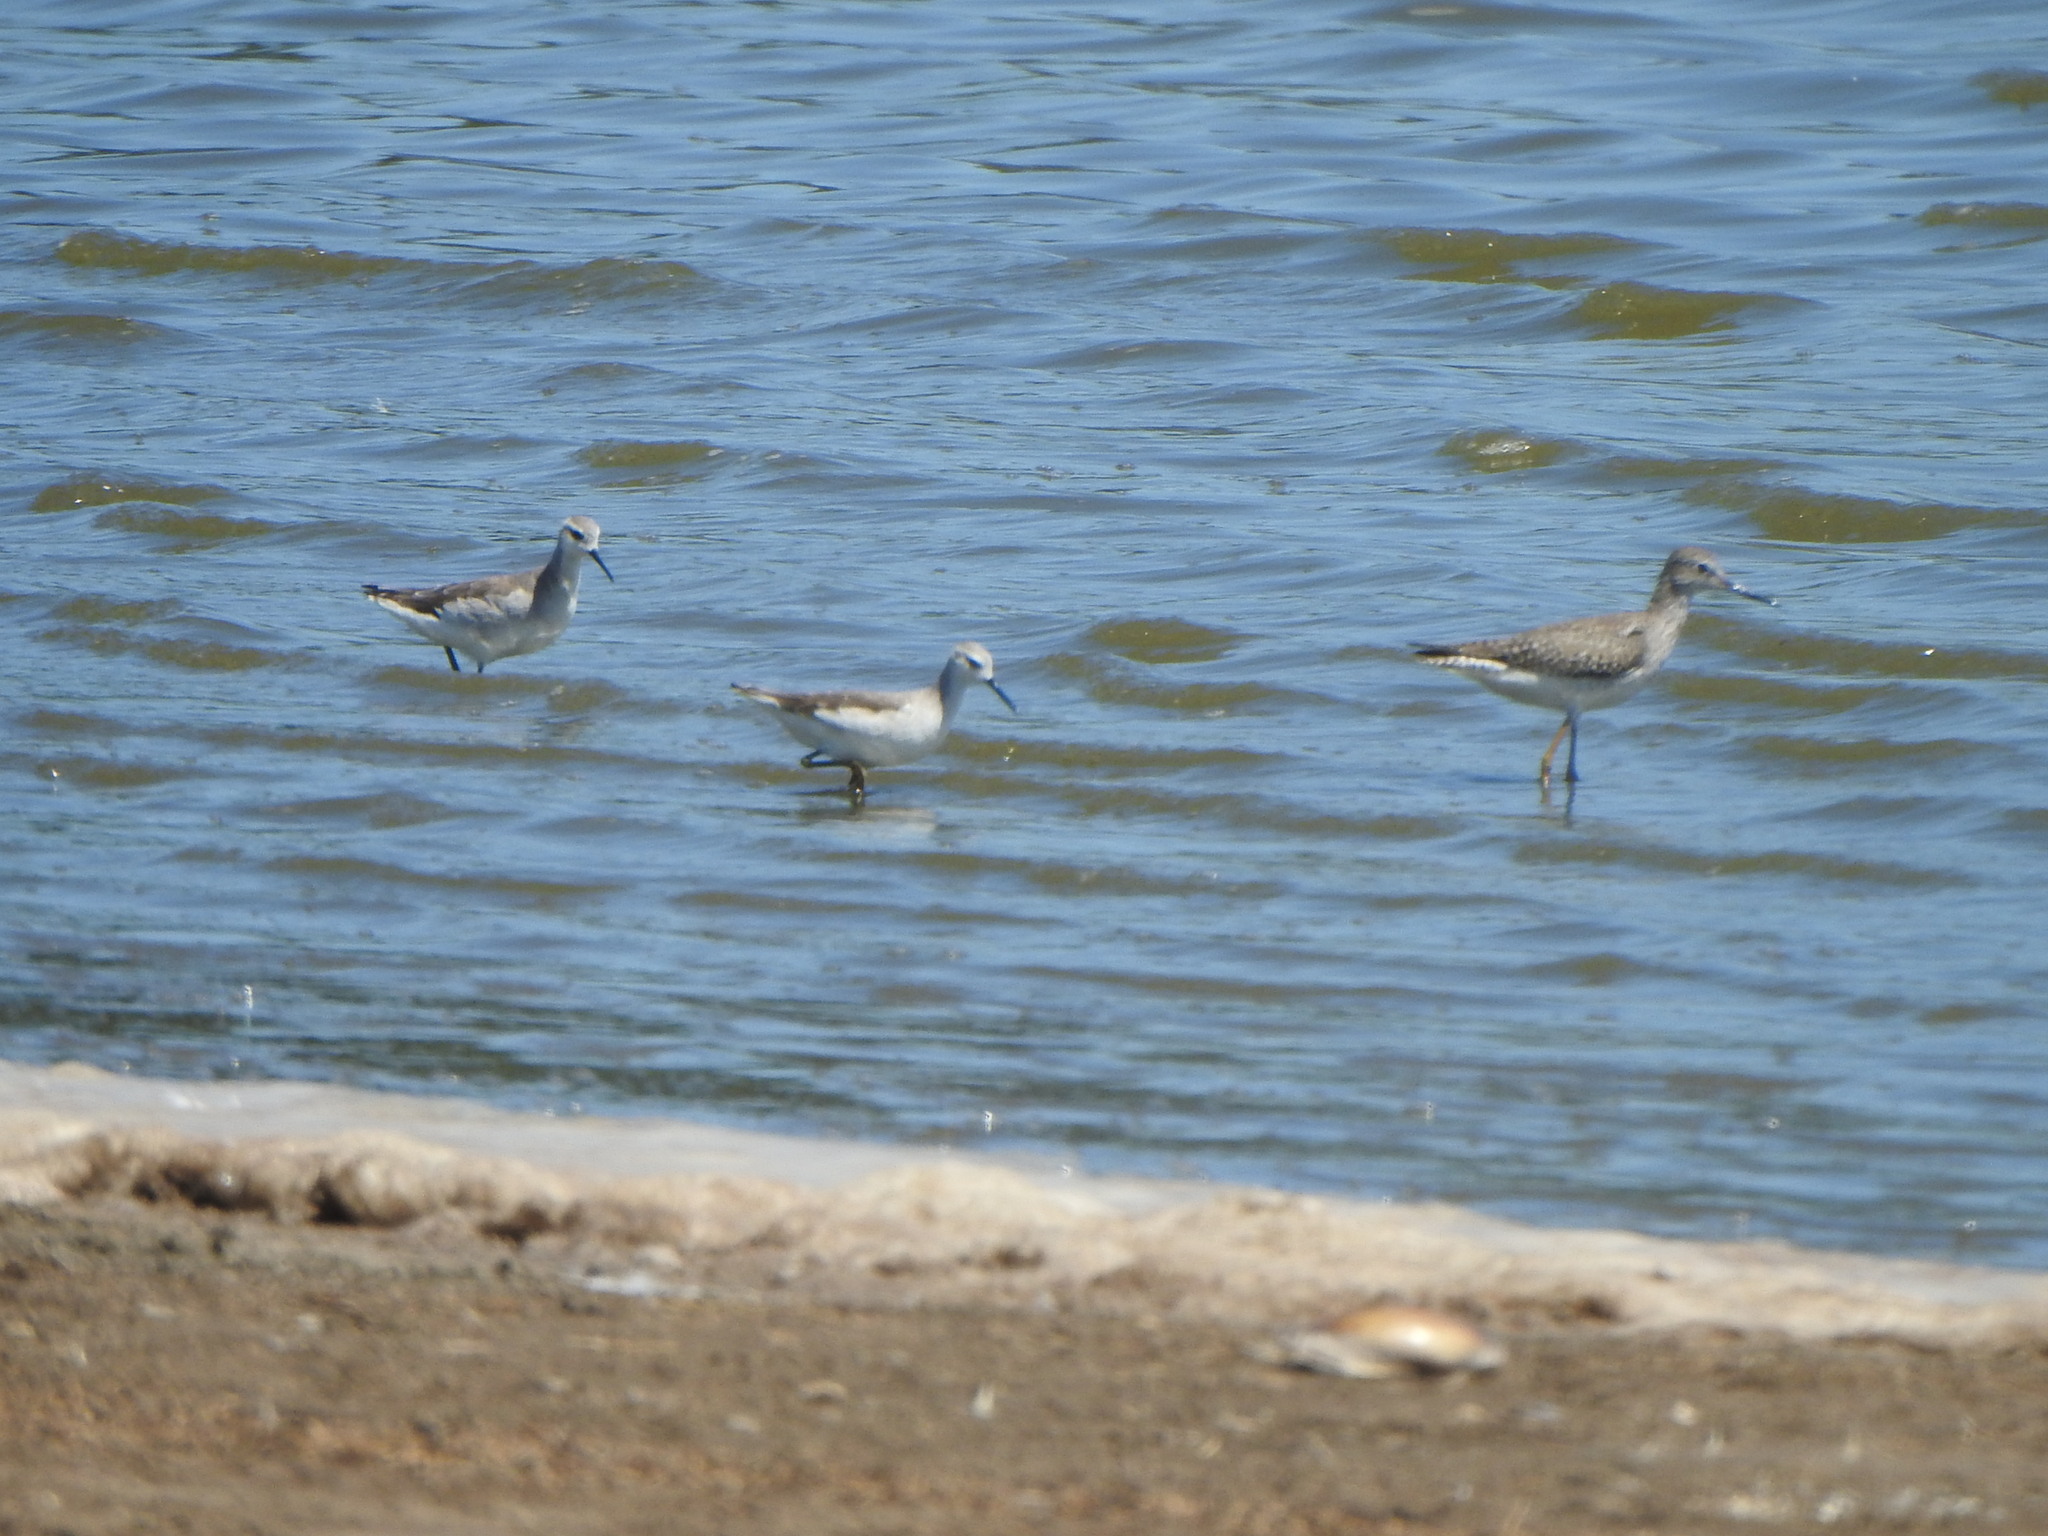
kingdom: Animalia
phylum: Chordata
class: Aves
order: Charadriiformes
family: Scolopacidae
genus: Phalaropus
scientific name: Phalaropus tricolor
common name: Wilson's phalarope
